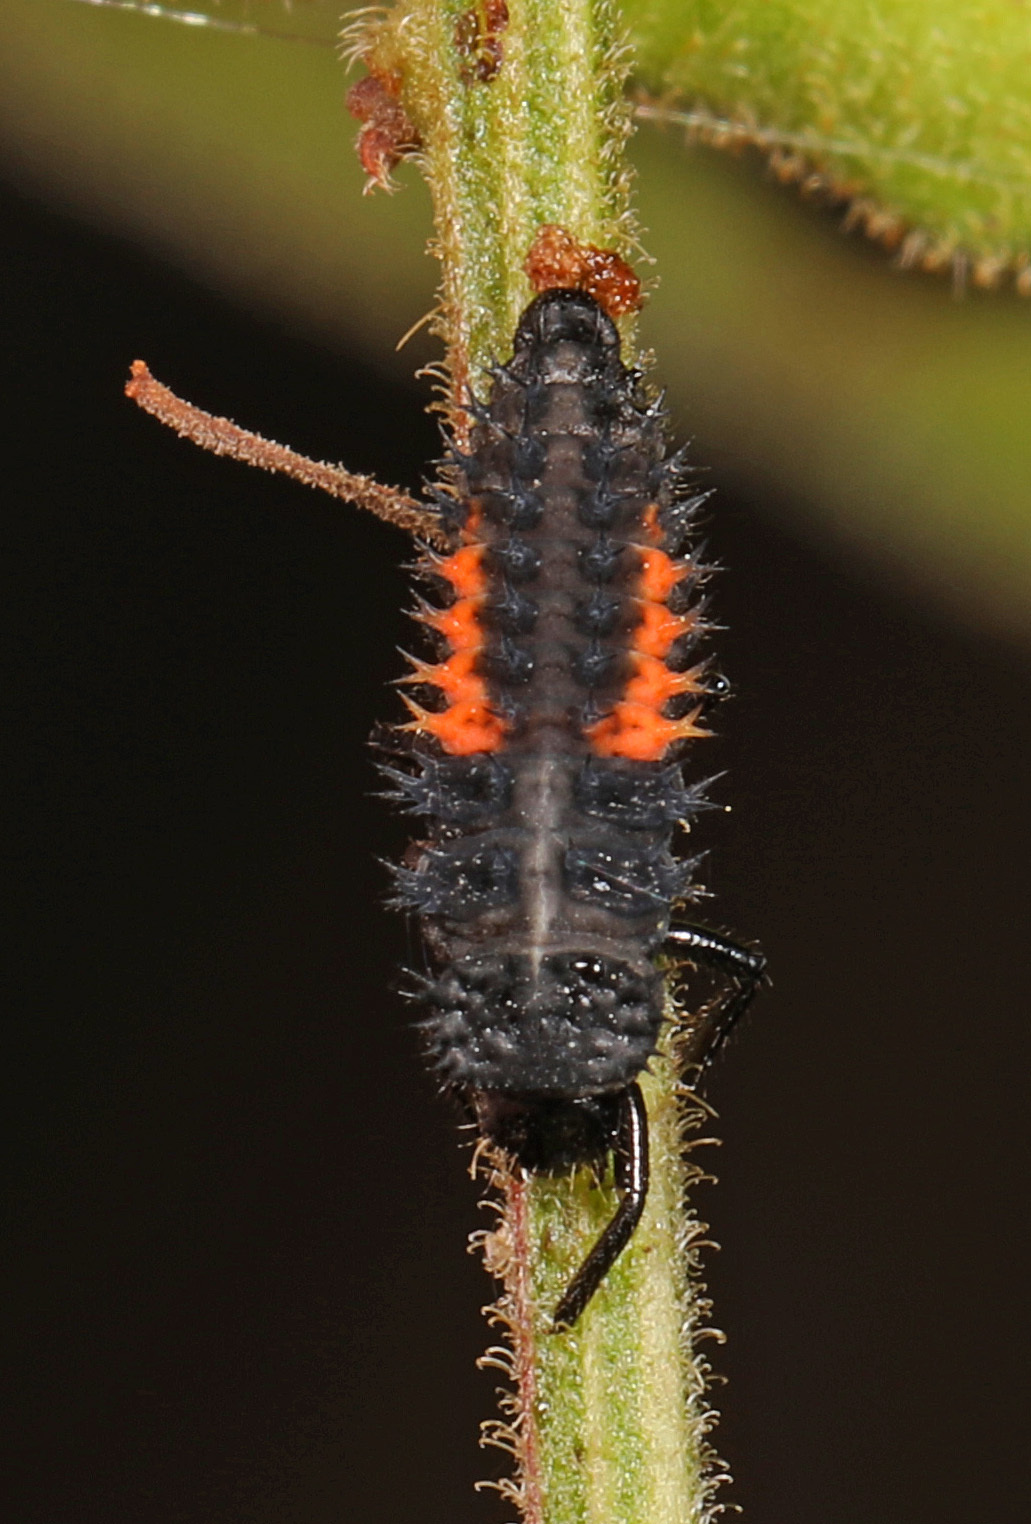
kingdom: Animalia
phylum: Arthropoda
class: Insecta
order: Coleoptera
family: Coccinellidae
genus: Harmonia
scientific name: Harmonia axyridis
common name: Harlequin ladybird
